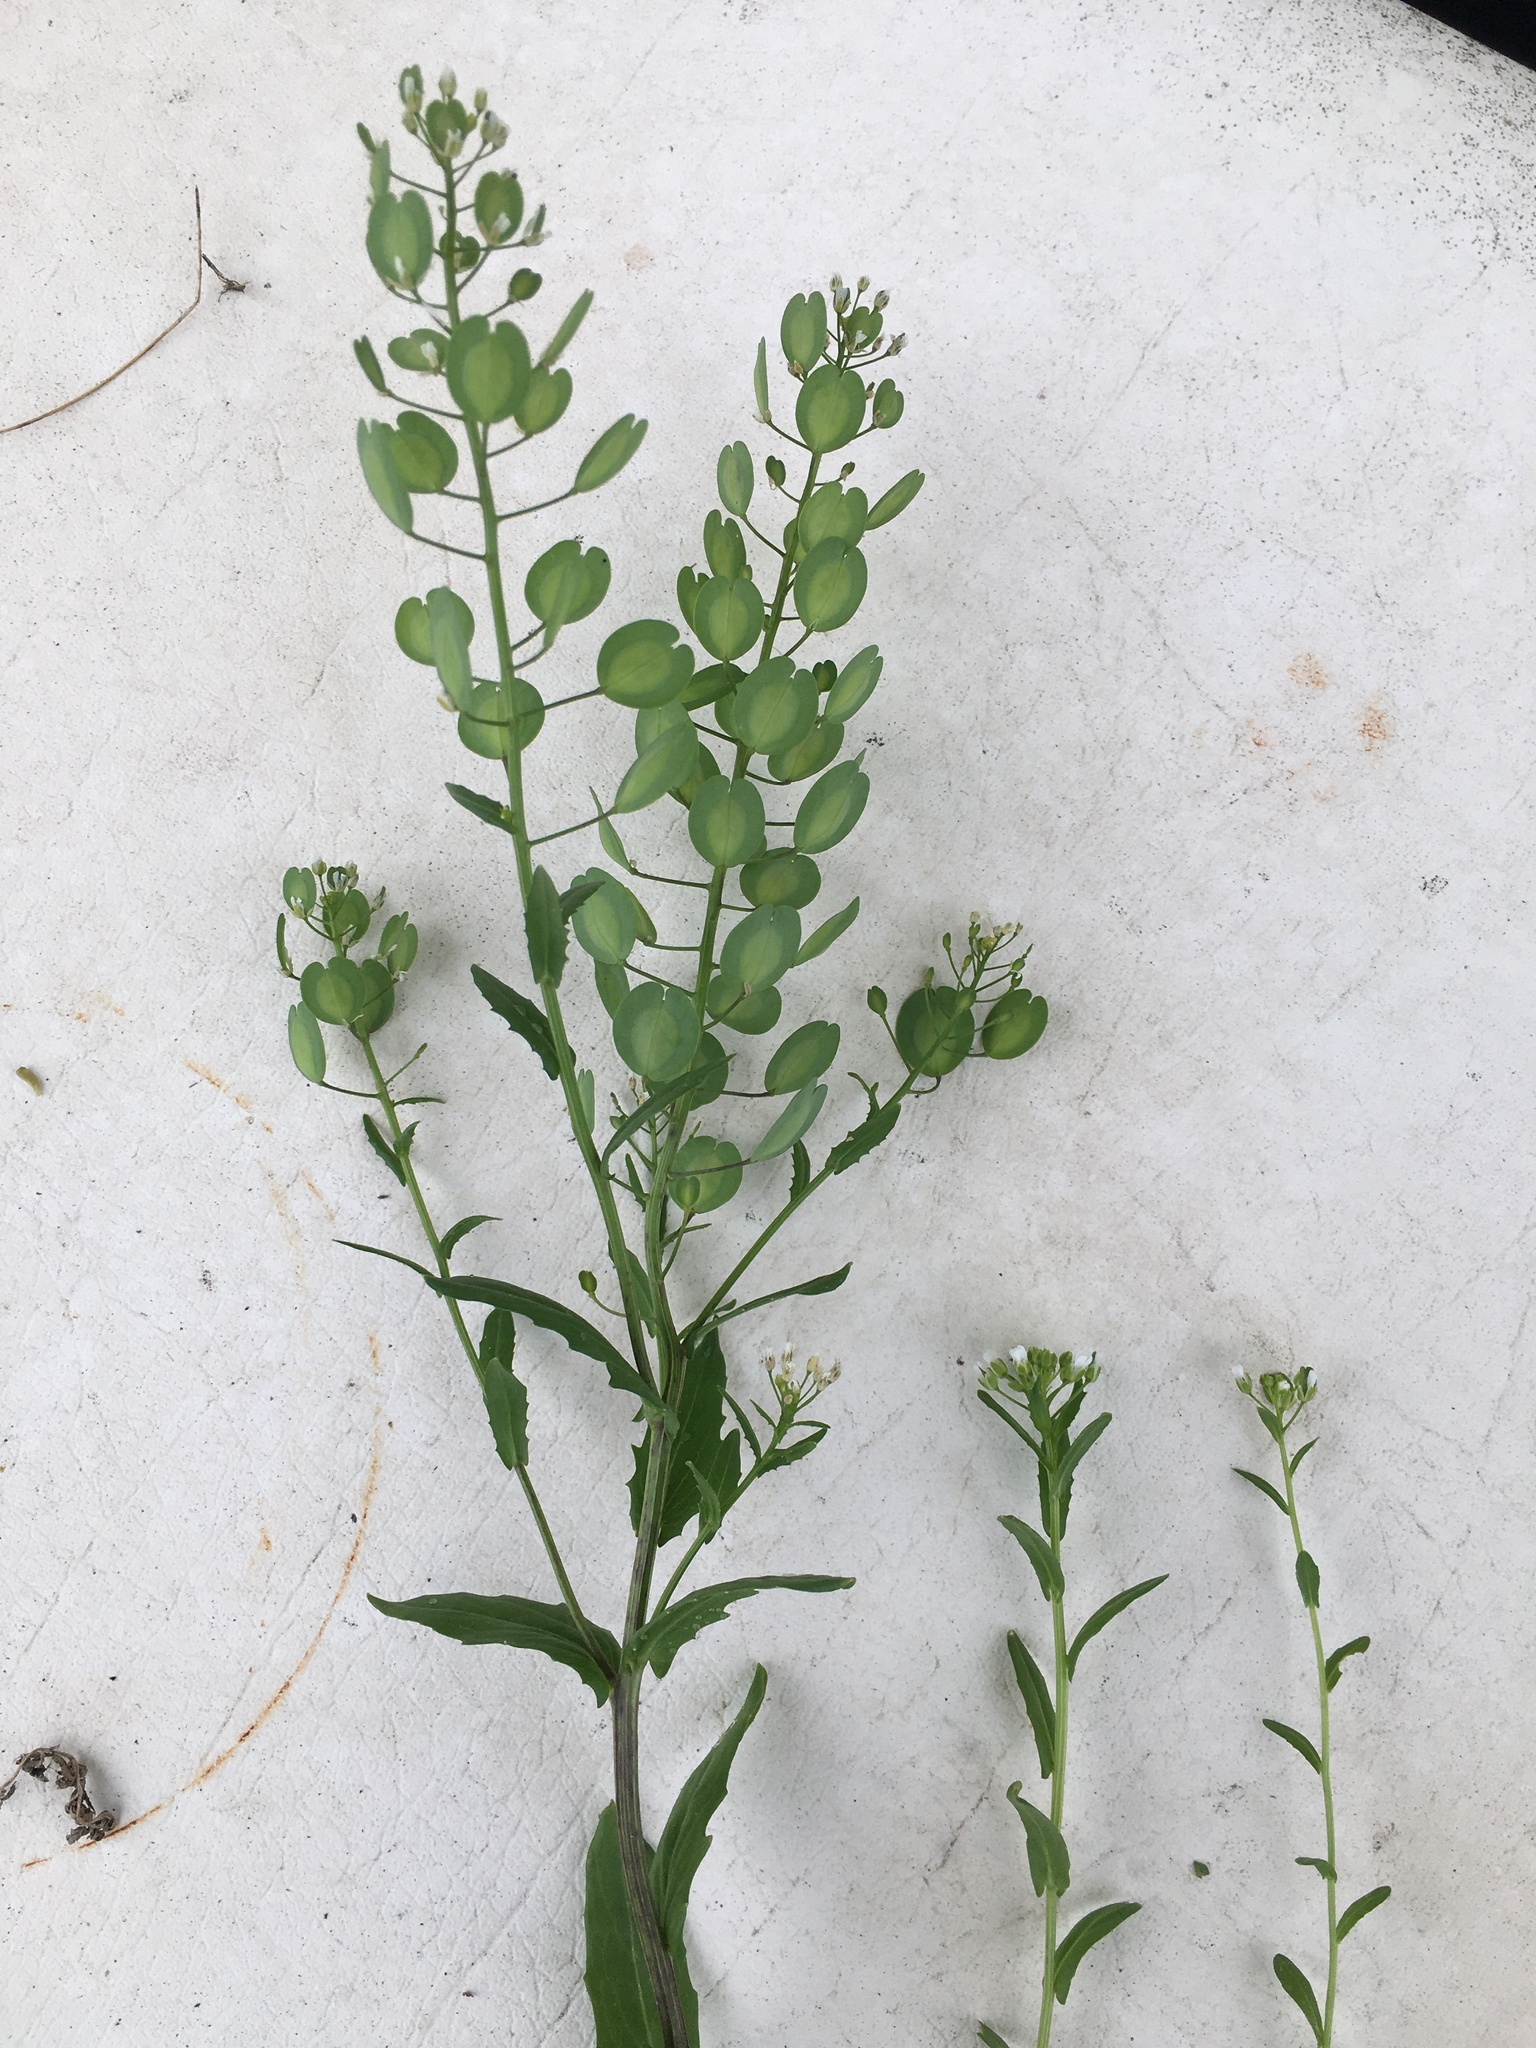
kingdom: Plantae
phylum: Tracheophyta
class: Magnoliopsida
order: Brassicales
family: Brassicaceae
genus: Thlaspi
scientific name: Thlaspi arvense
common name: Field pennycress
